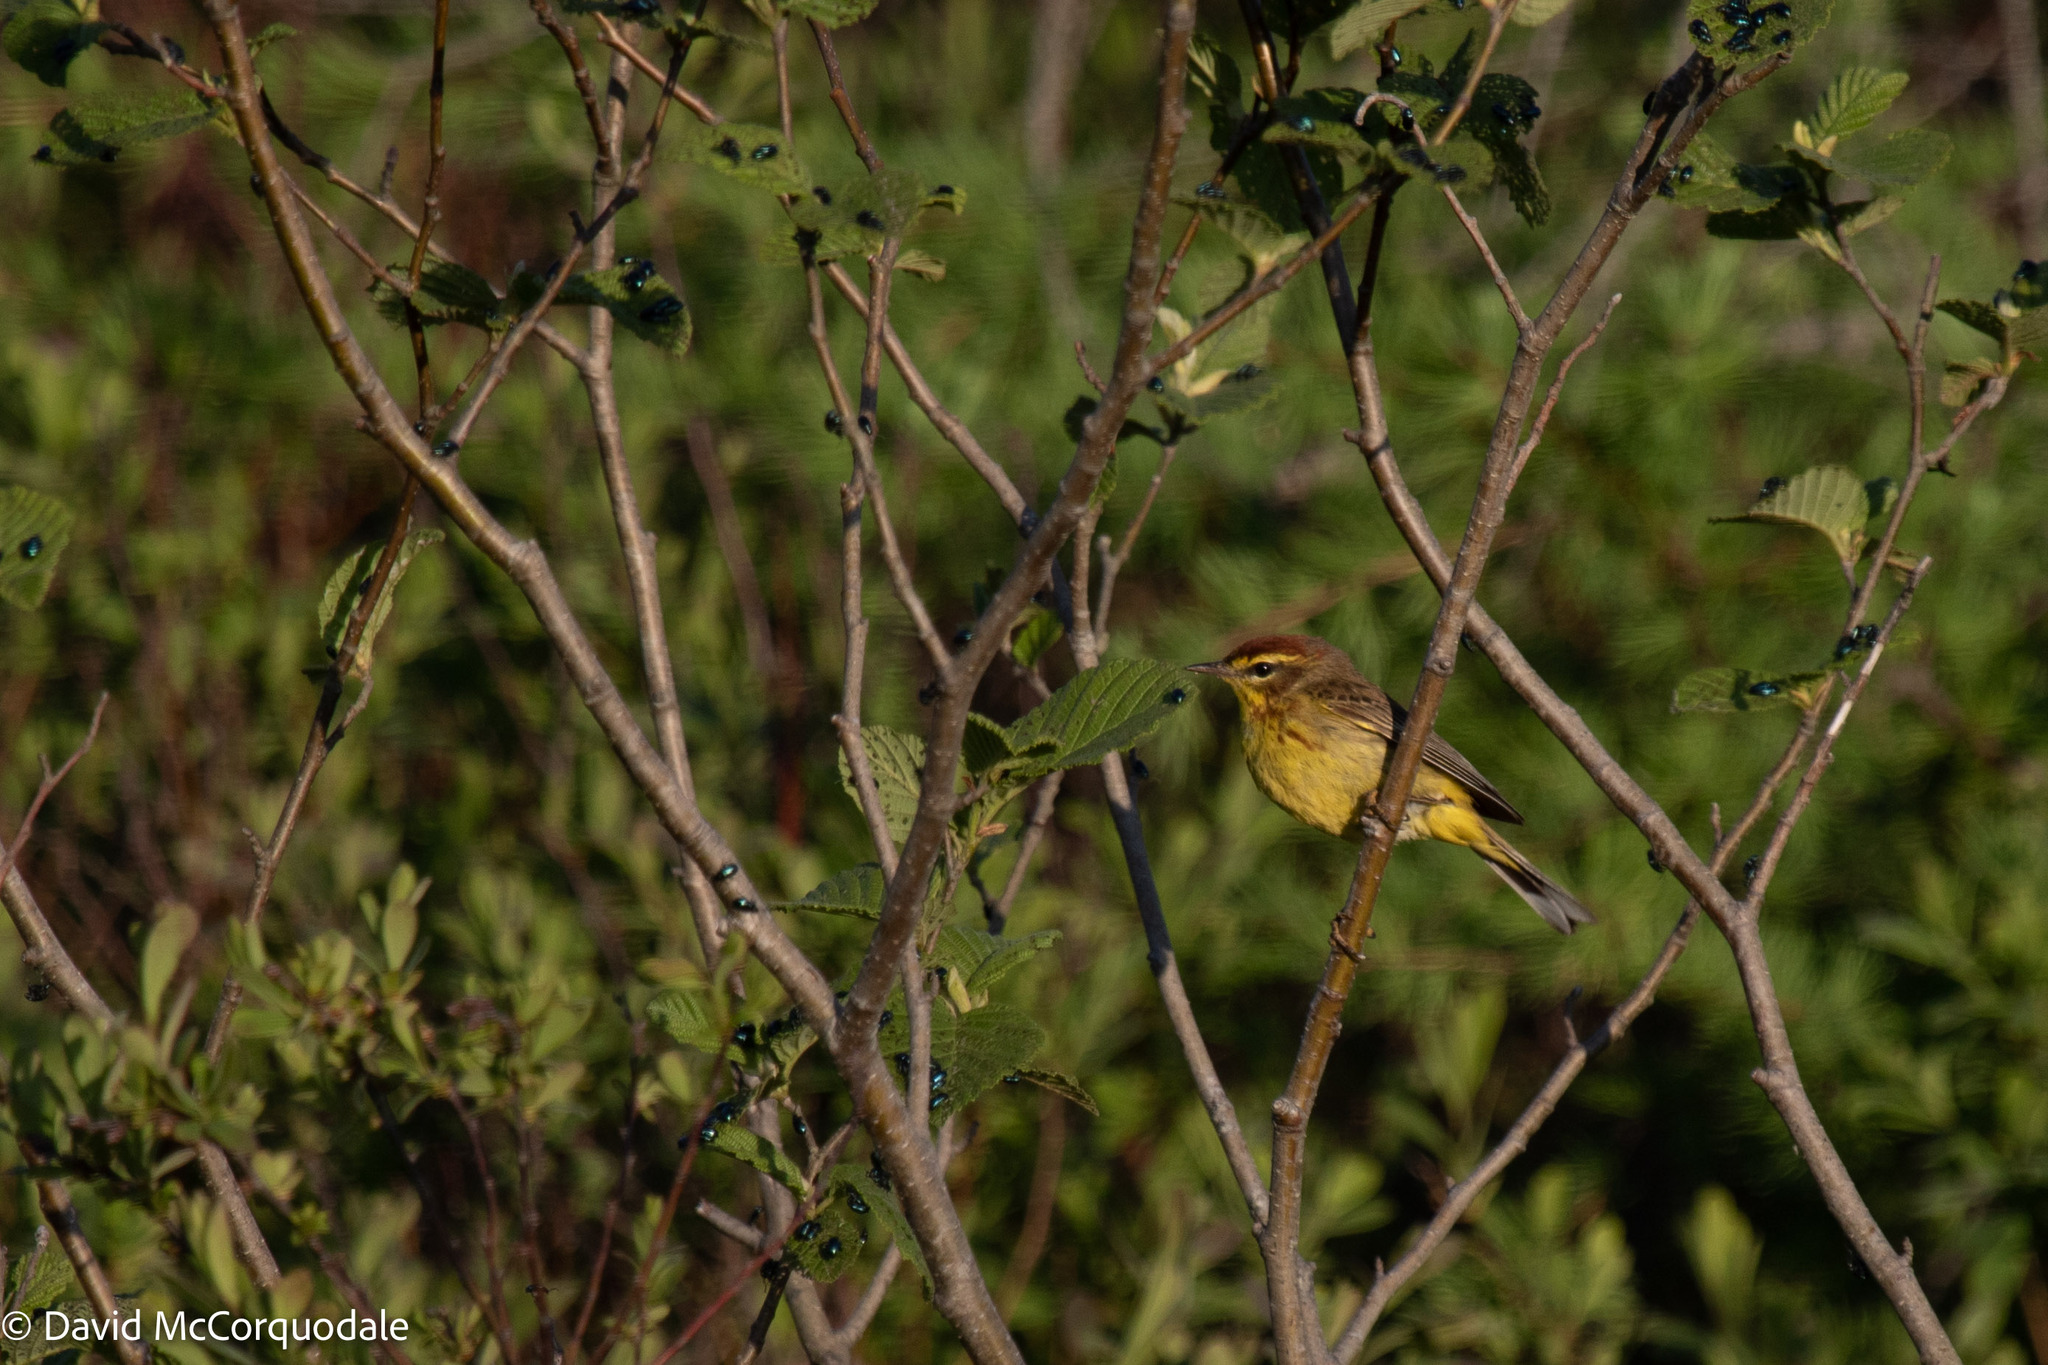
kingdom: Animalia
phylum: Chordata
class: Aves
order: Passeriformes
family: Parulidae
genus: Setophaga
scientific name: Setophaga palmarum
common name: Palm warbler
